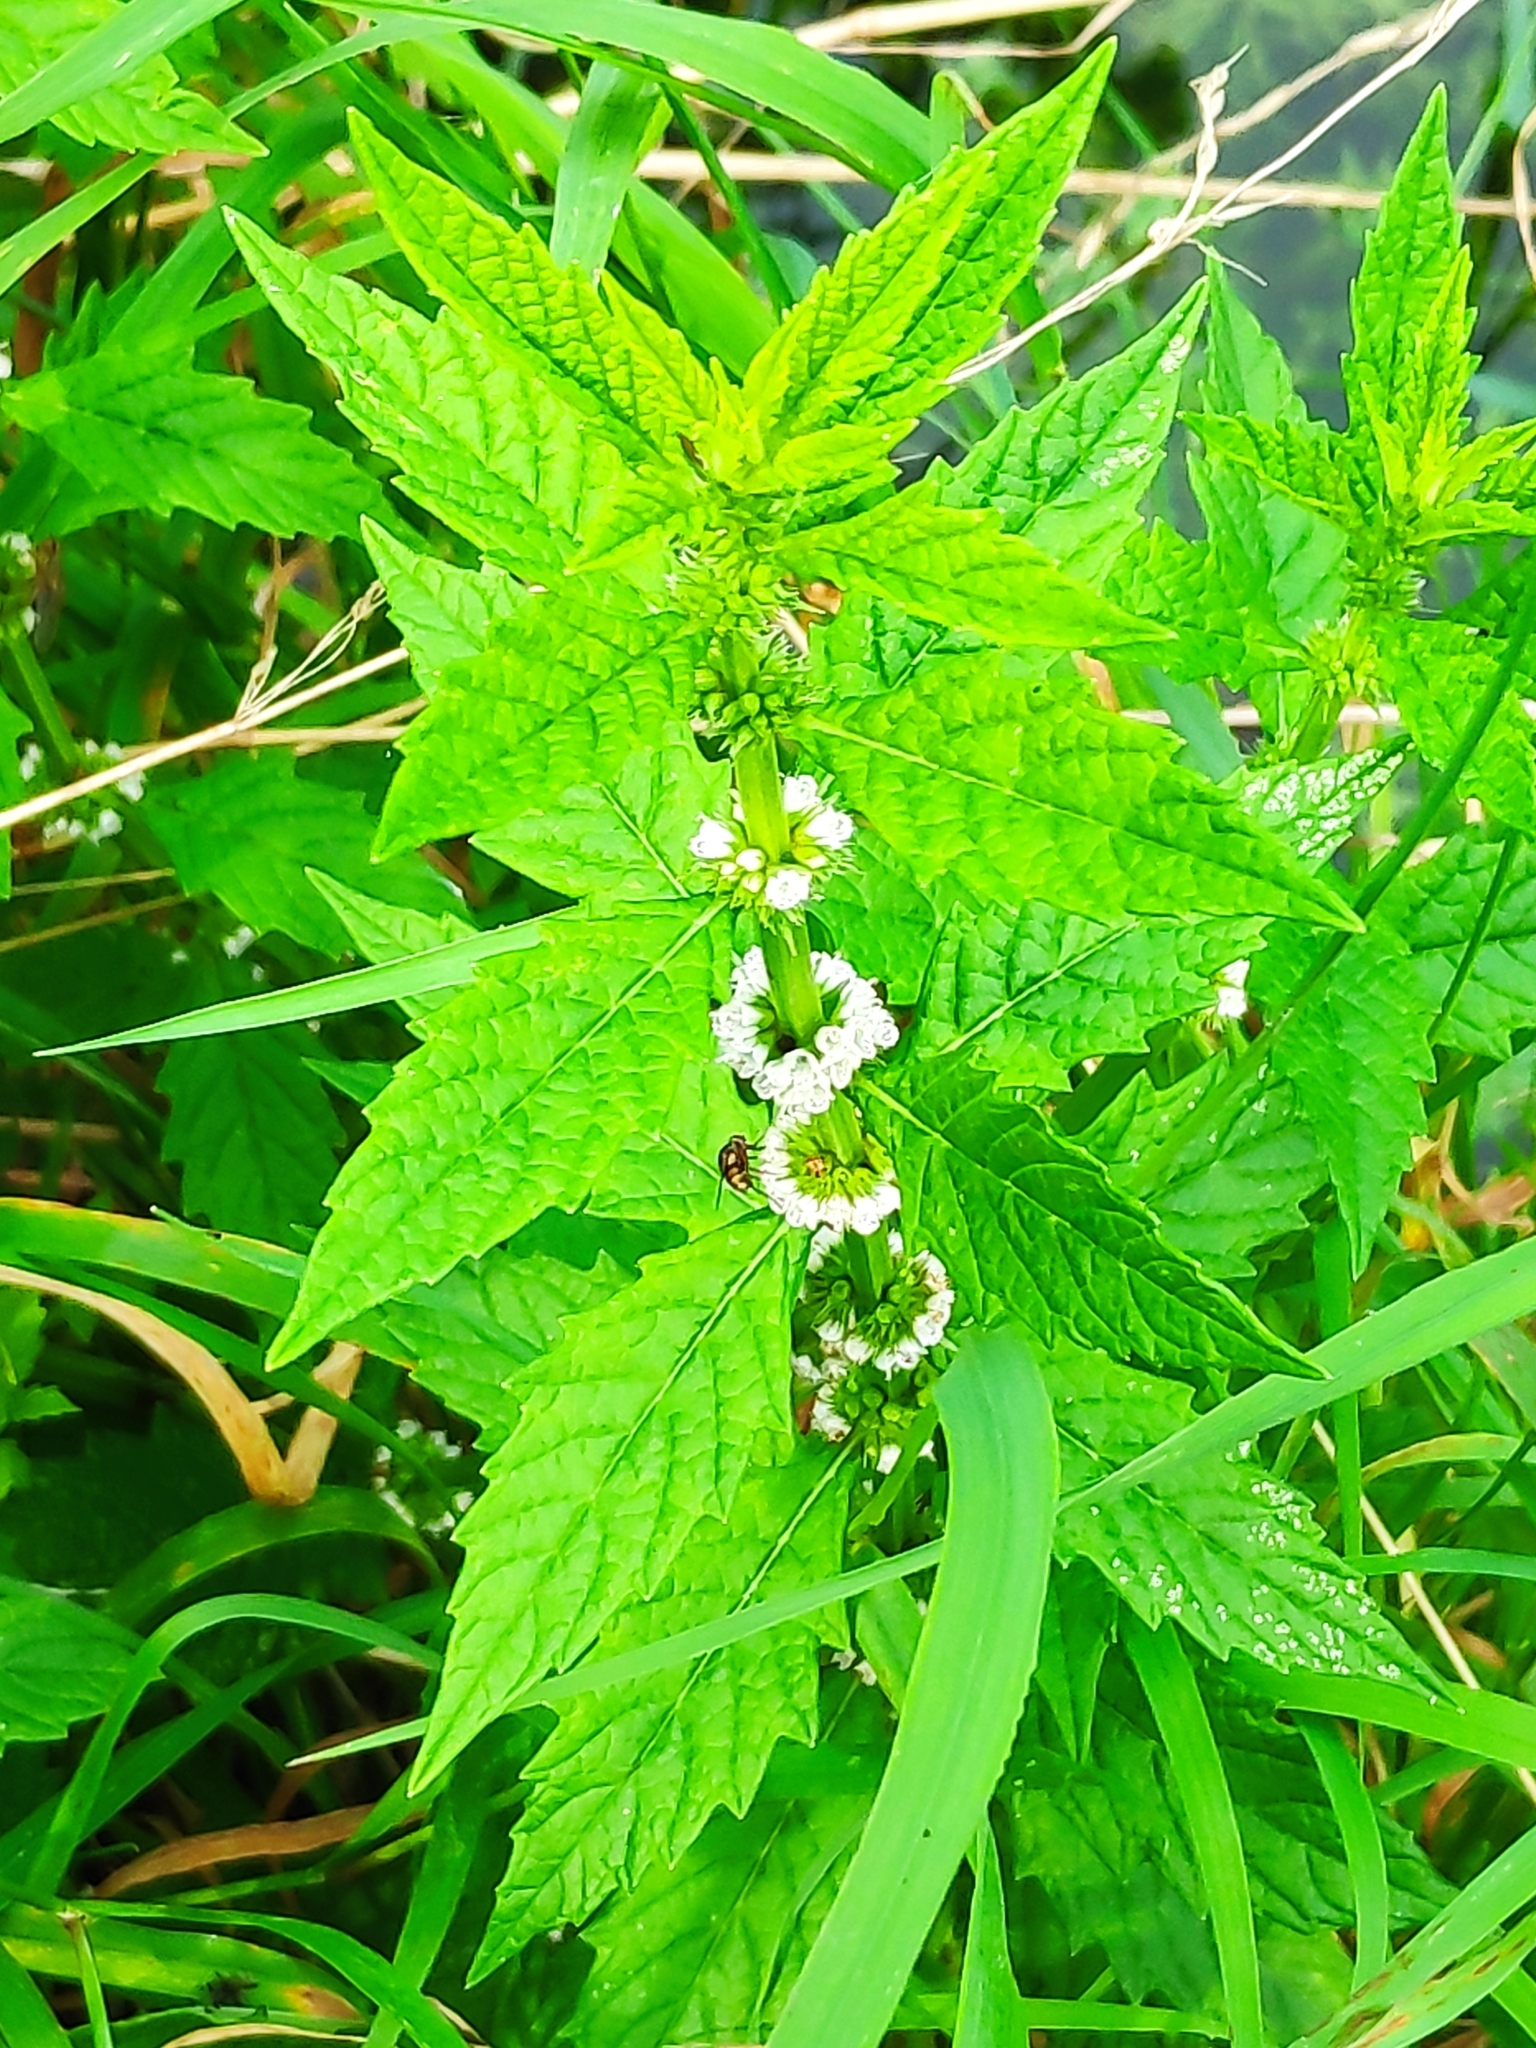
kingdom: Plantae
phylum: Tracheophyta
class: Magnoliopsida
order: Lamiales
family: Lamiaceae
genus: Lycopus
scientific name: Lycopus europaeus
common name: European bugleweed
